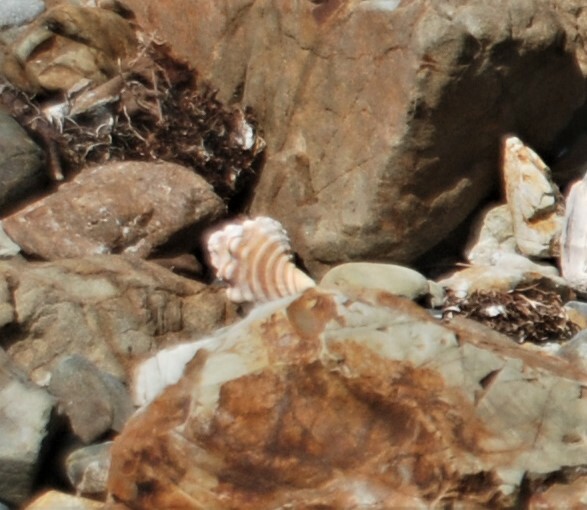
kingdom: Animalia
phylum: Mollusca
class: Gastropoda
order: Littorinimorpha
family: Cymatiidae
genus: Cabestana
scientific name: Cabestana spengleri
